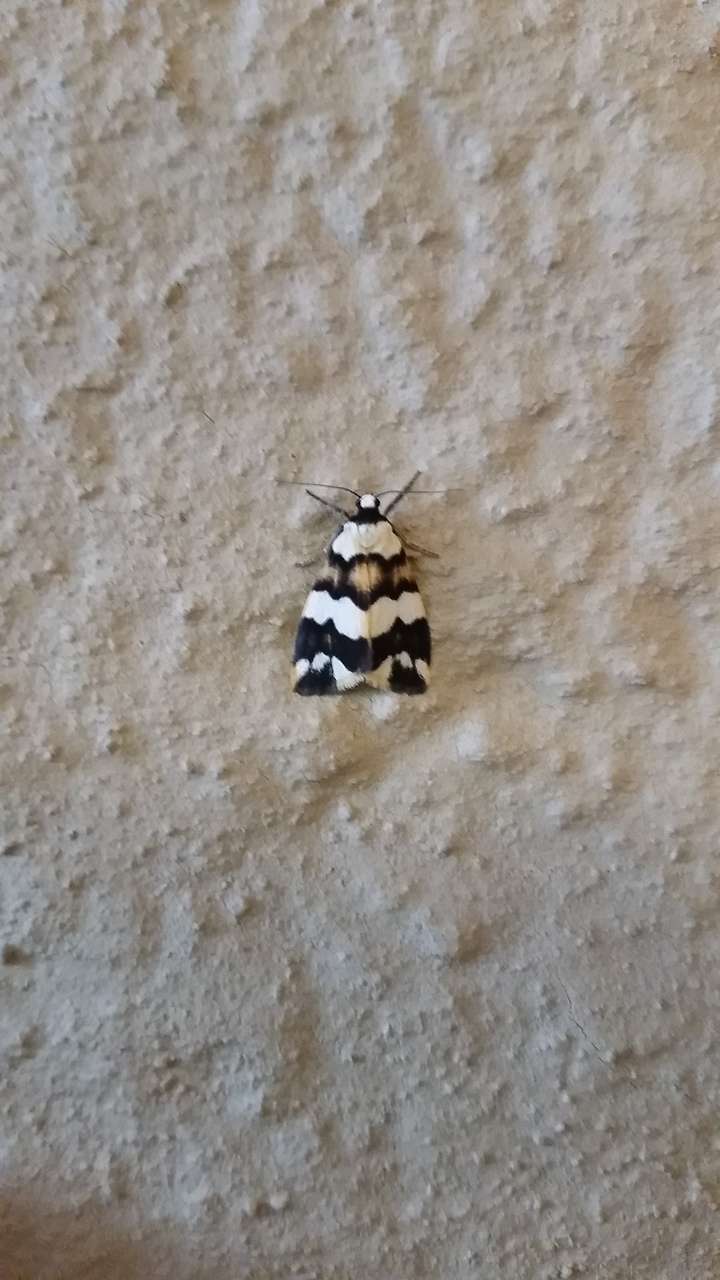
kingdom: Animalia
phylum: Arthropoda
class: Insecta
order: Lepidoptera
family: Erebidae
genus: Termessa
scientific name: Termessa gratiosa
